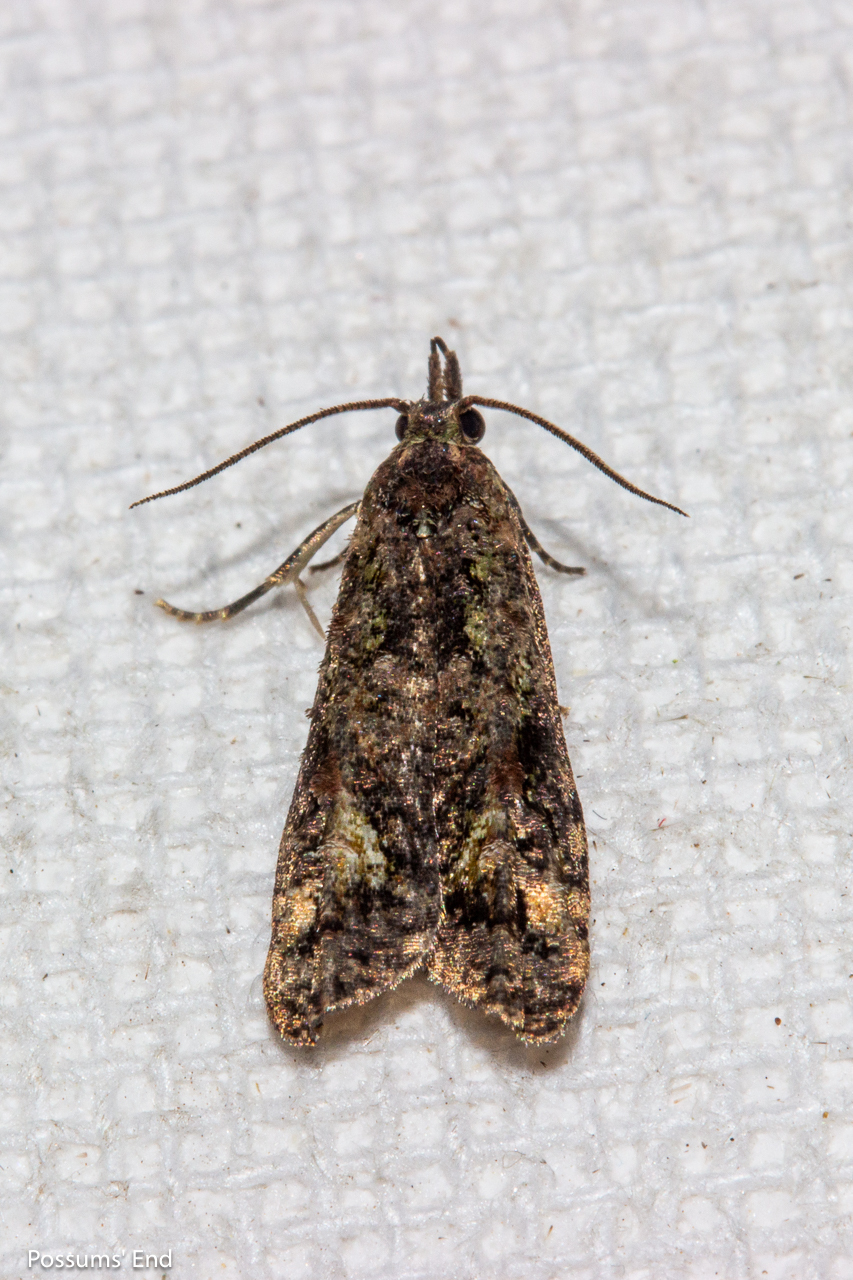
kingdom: Animalia
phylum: Arthropoda
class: Insecta
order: Lepidoptera
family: Copromorphidae
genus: Phycomorpha
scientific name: Phycomorpha metachrysa
